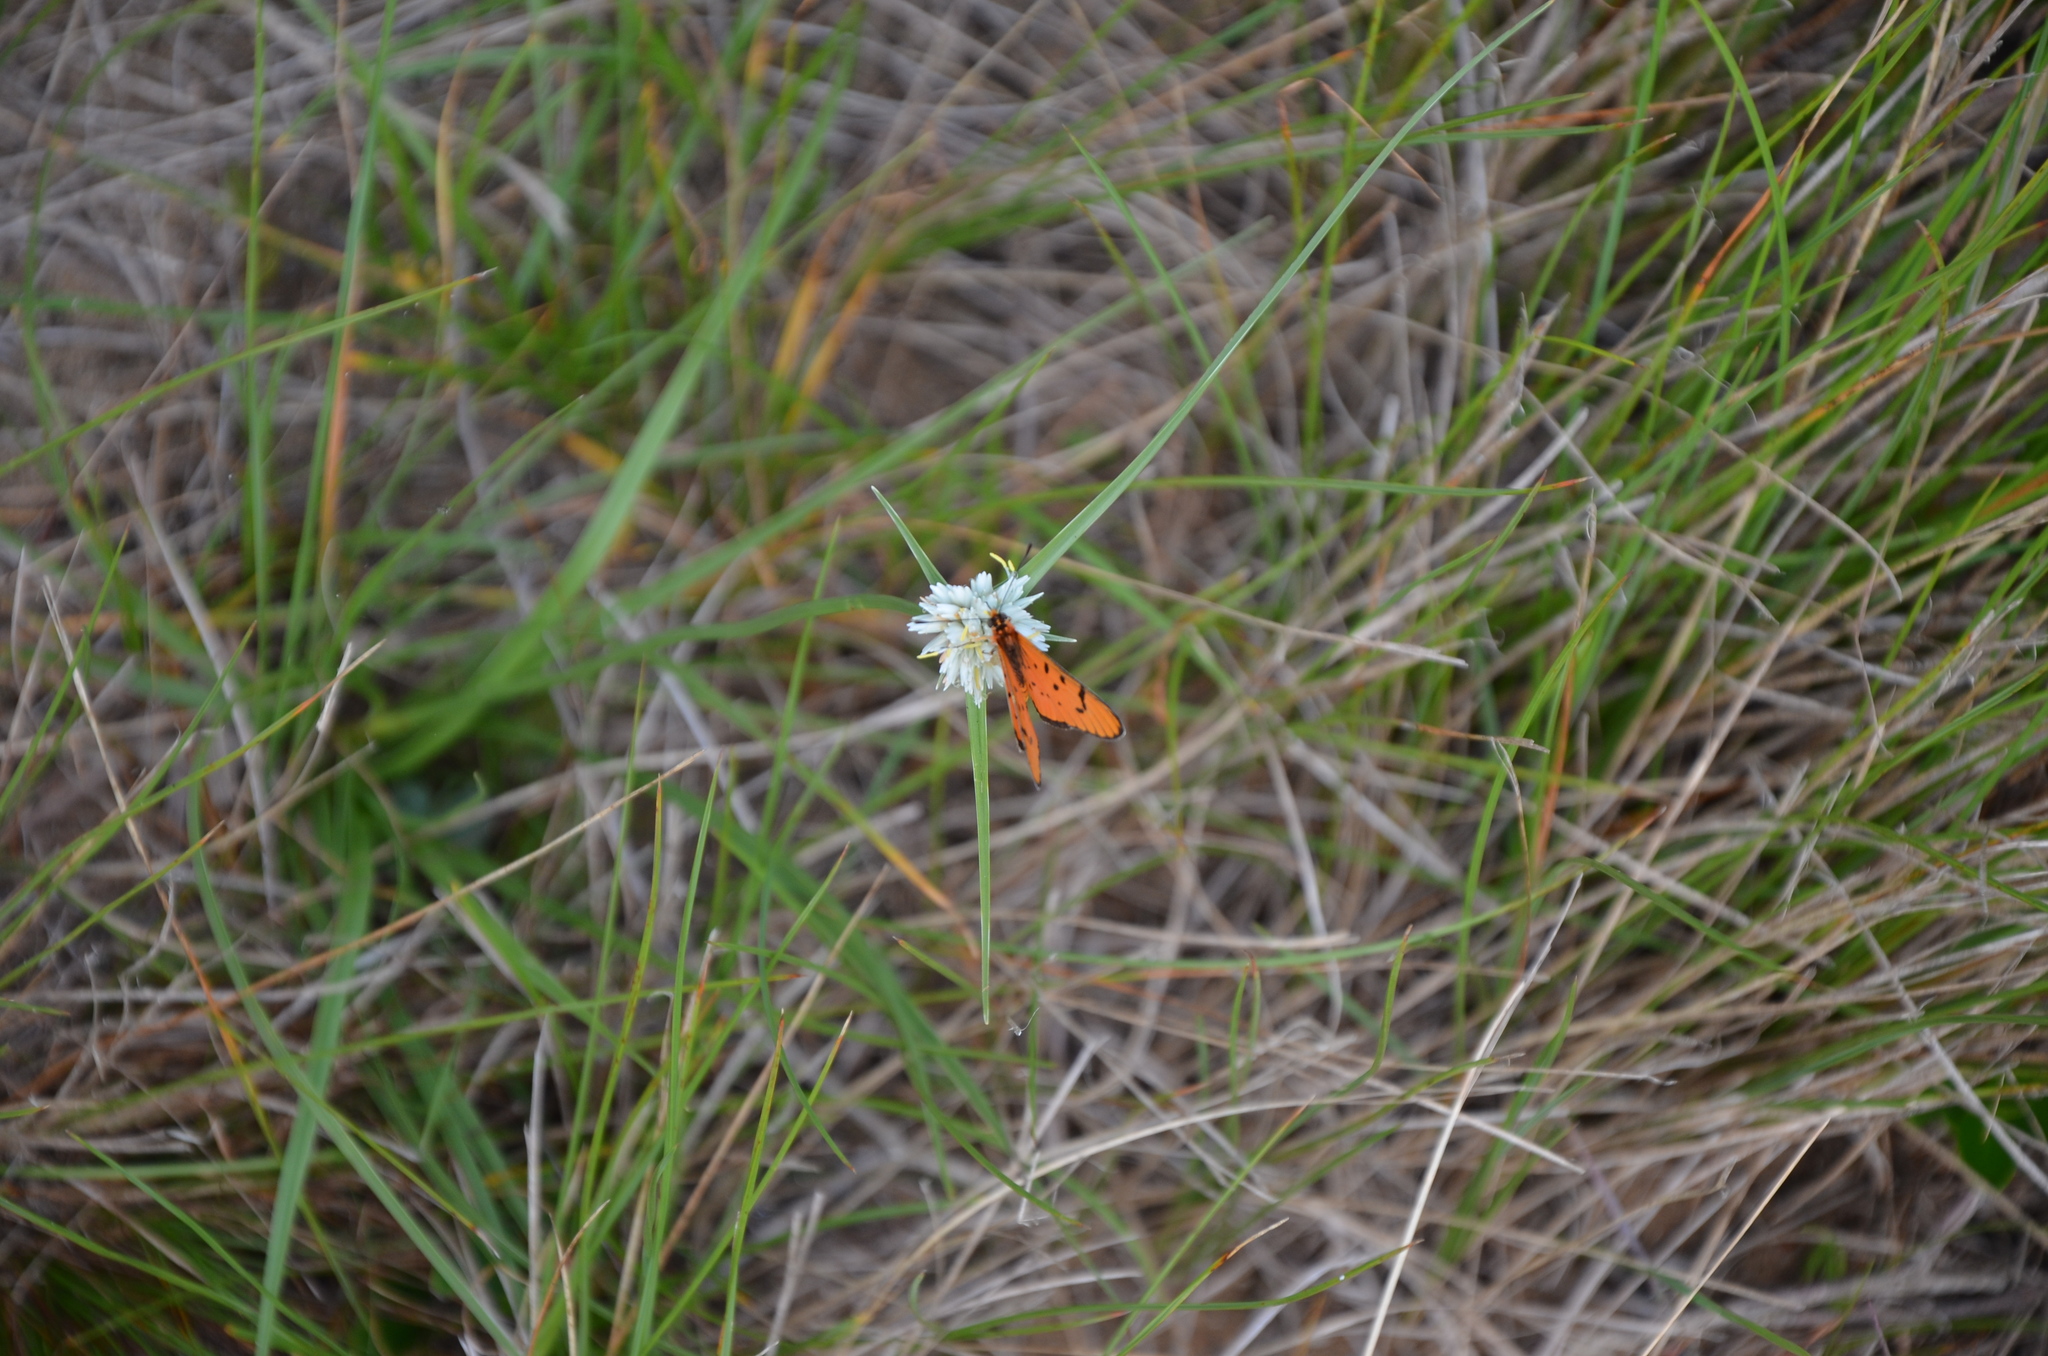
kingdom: Animalia
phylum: Arthropoda
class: Insecta
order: Lepidoptera
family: Nymphalidae
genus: Rubraea
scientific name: Rubraea
